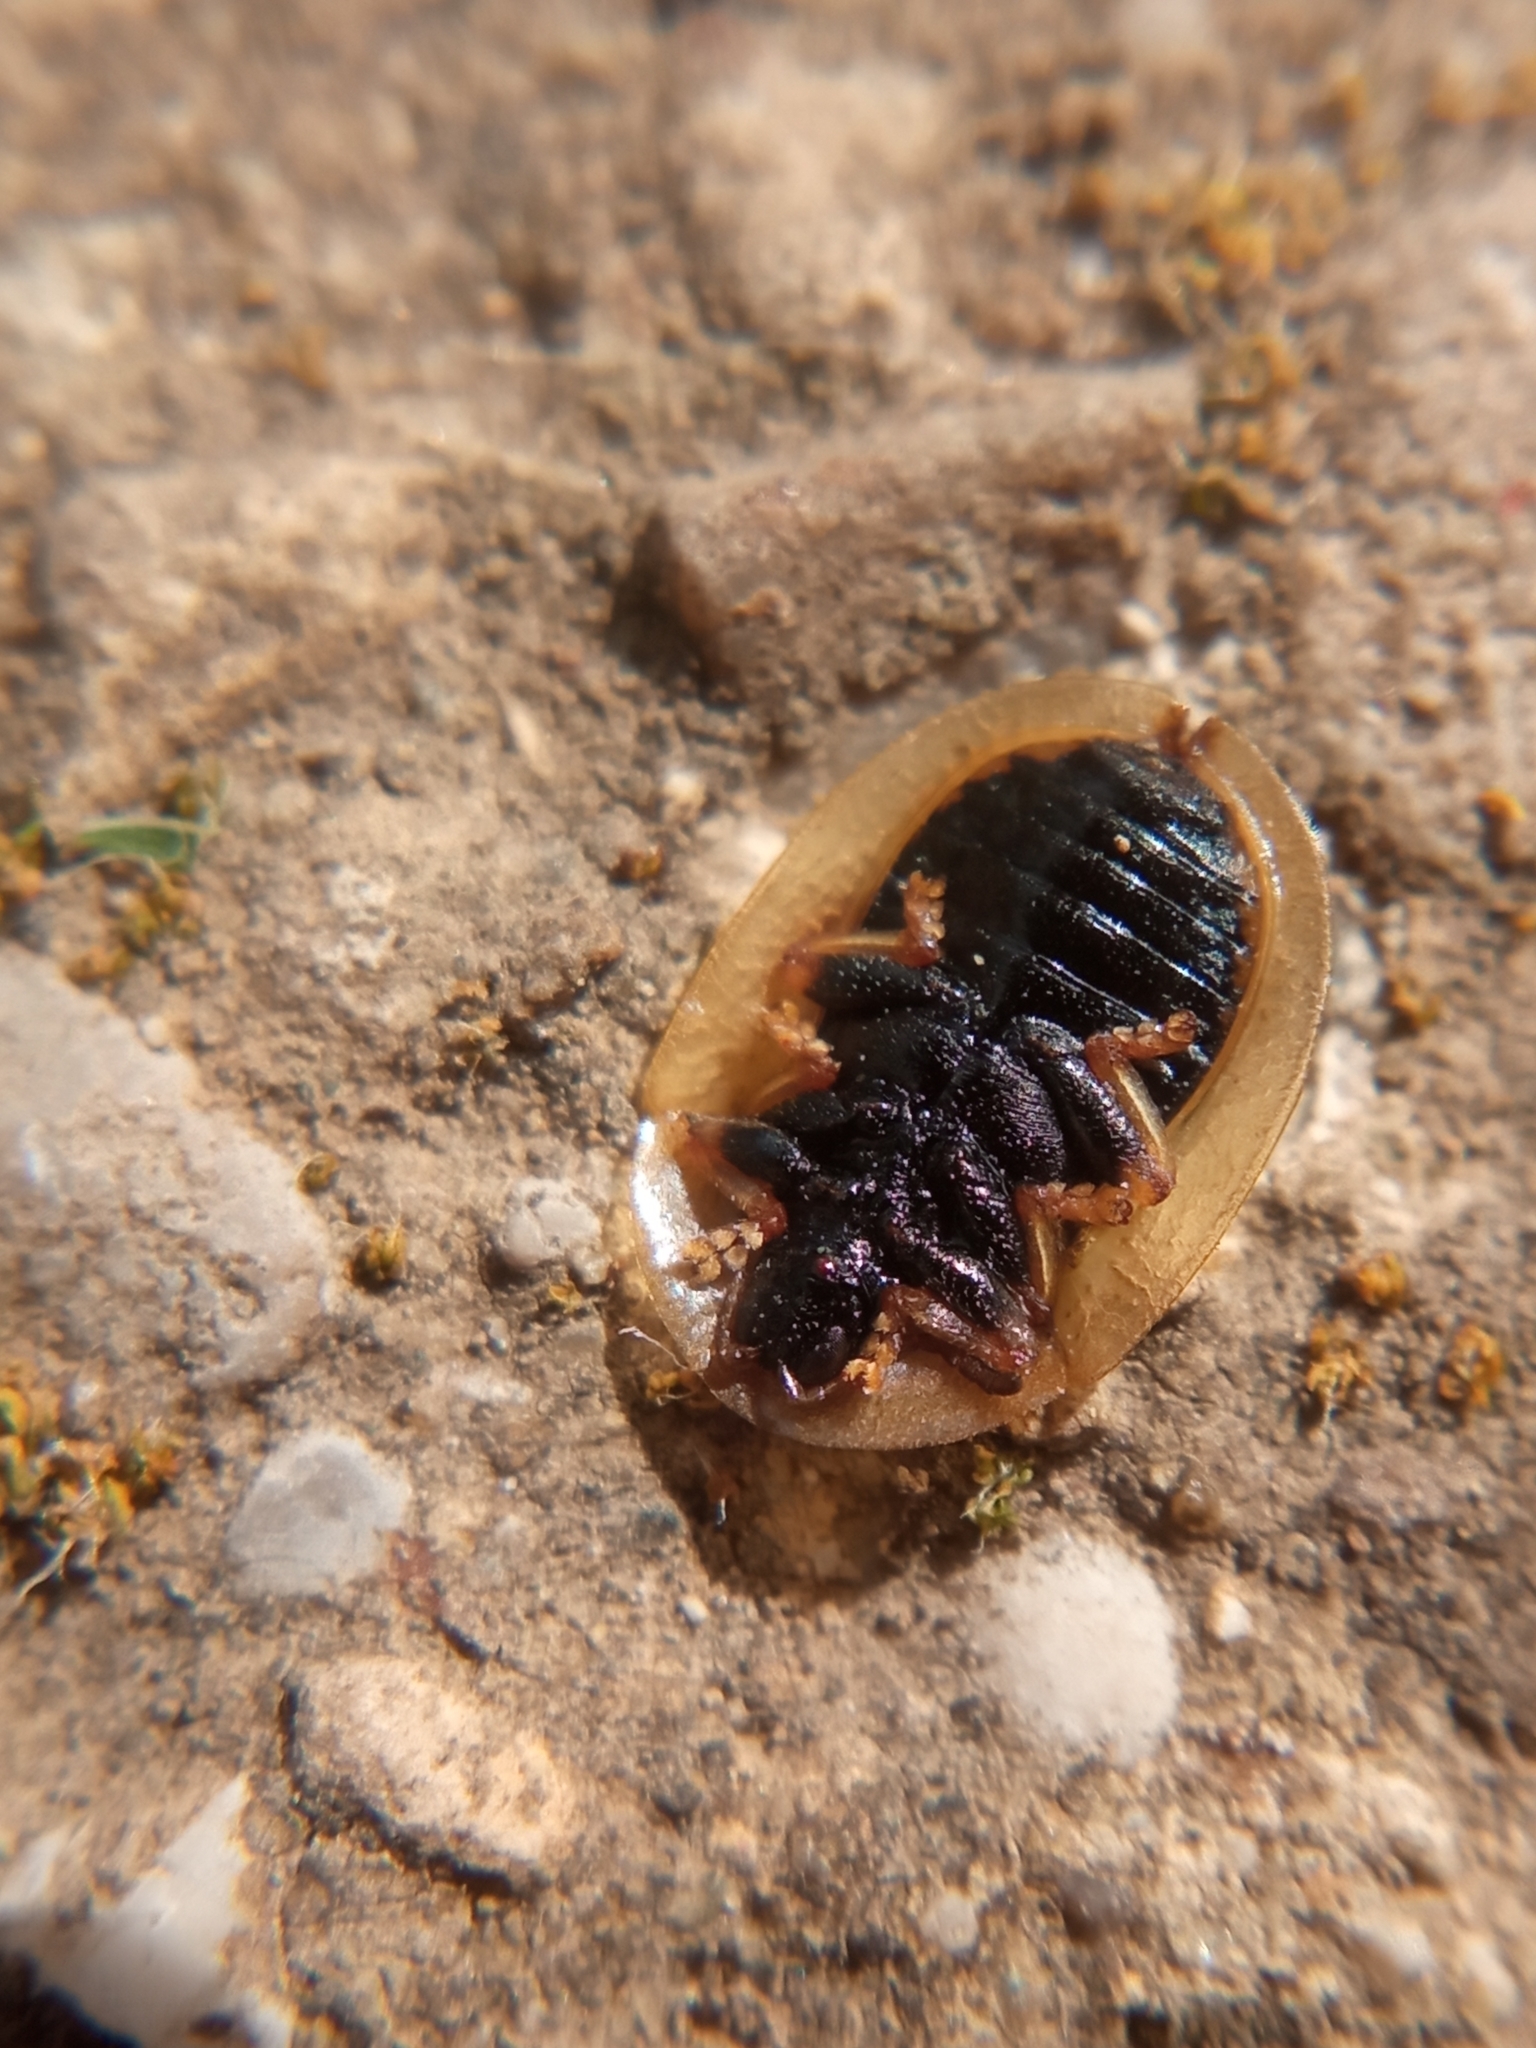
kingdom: Animalia
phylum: Arthropoda
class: Insecta
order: Coleoptera
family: Chrysomelidae
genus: Cassida
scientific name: Cassida vibex
